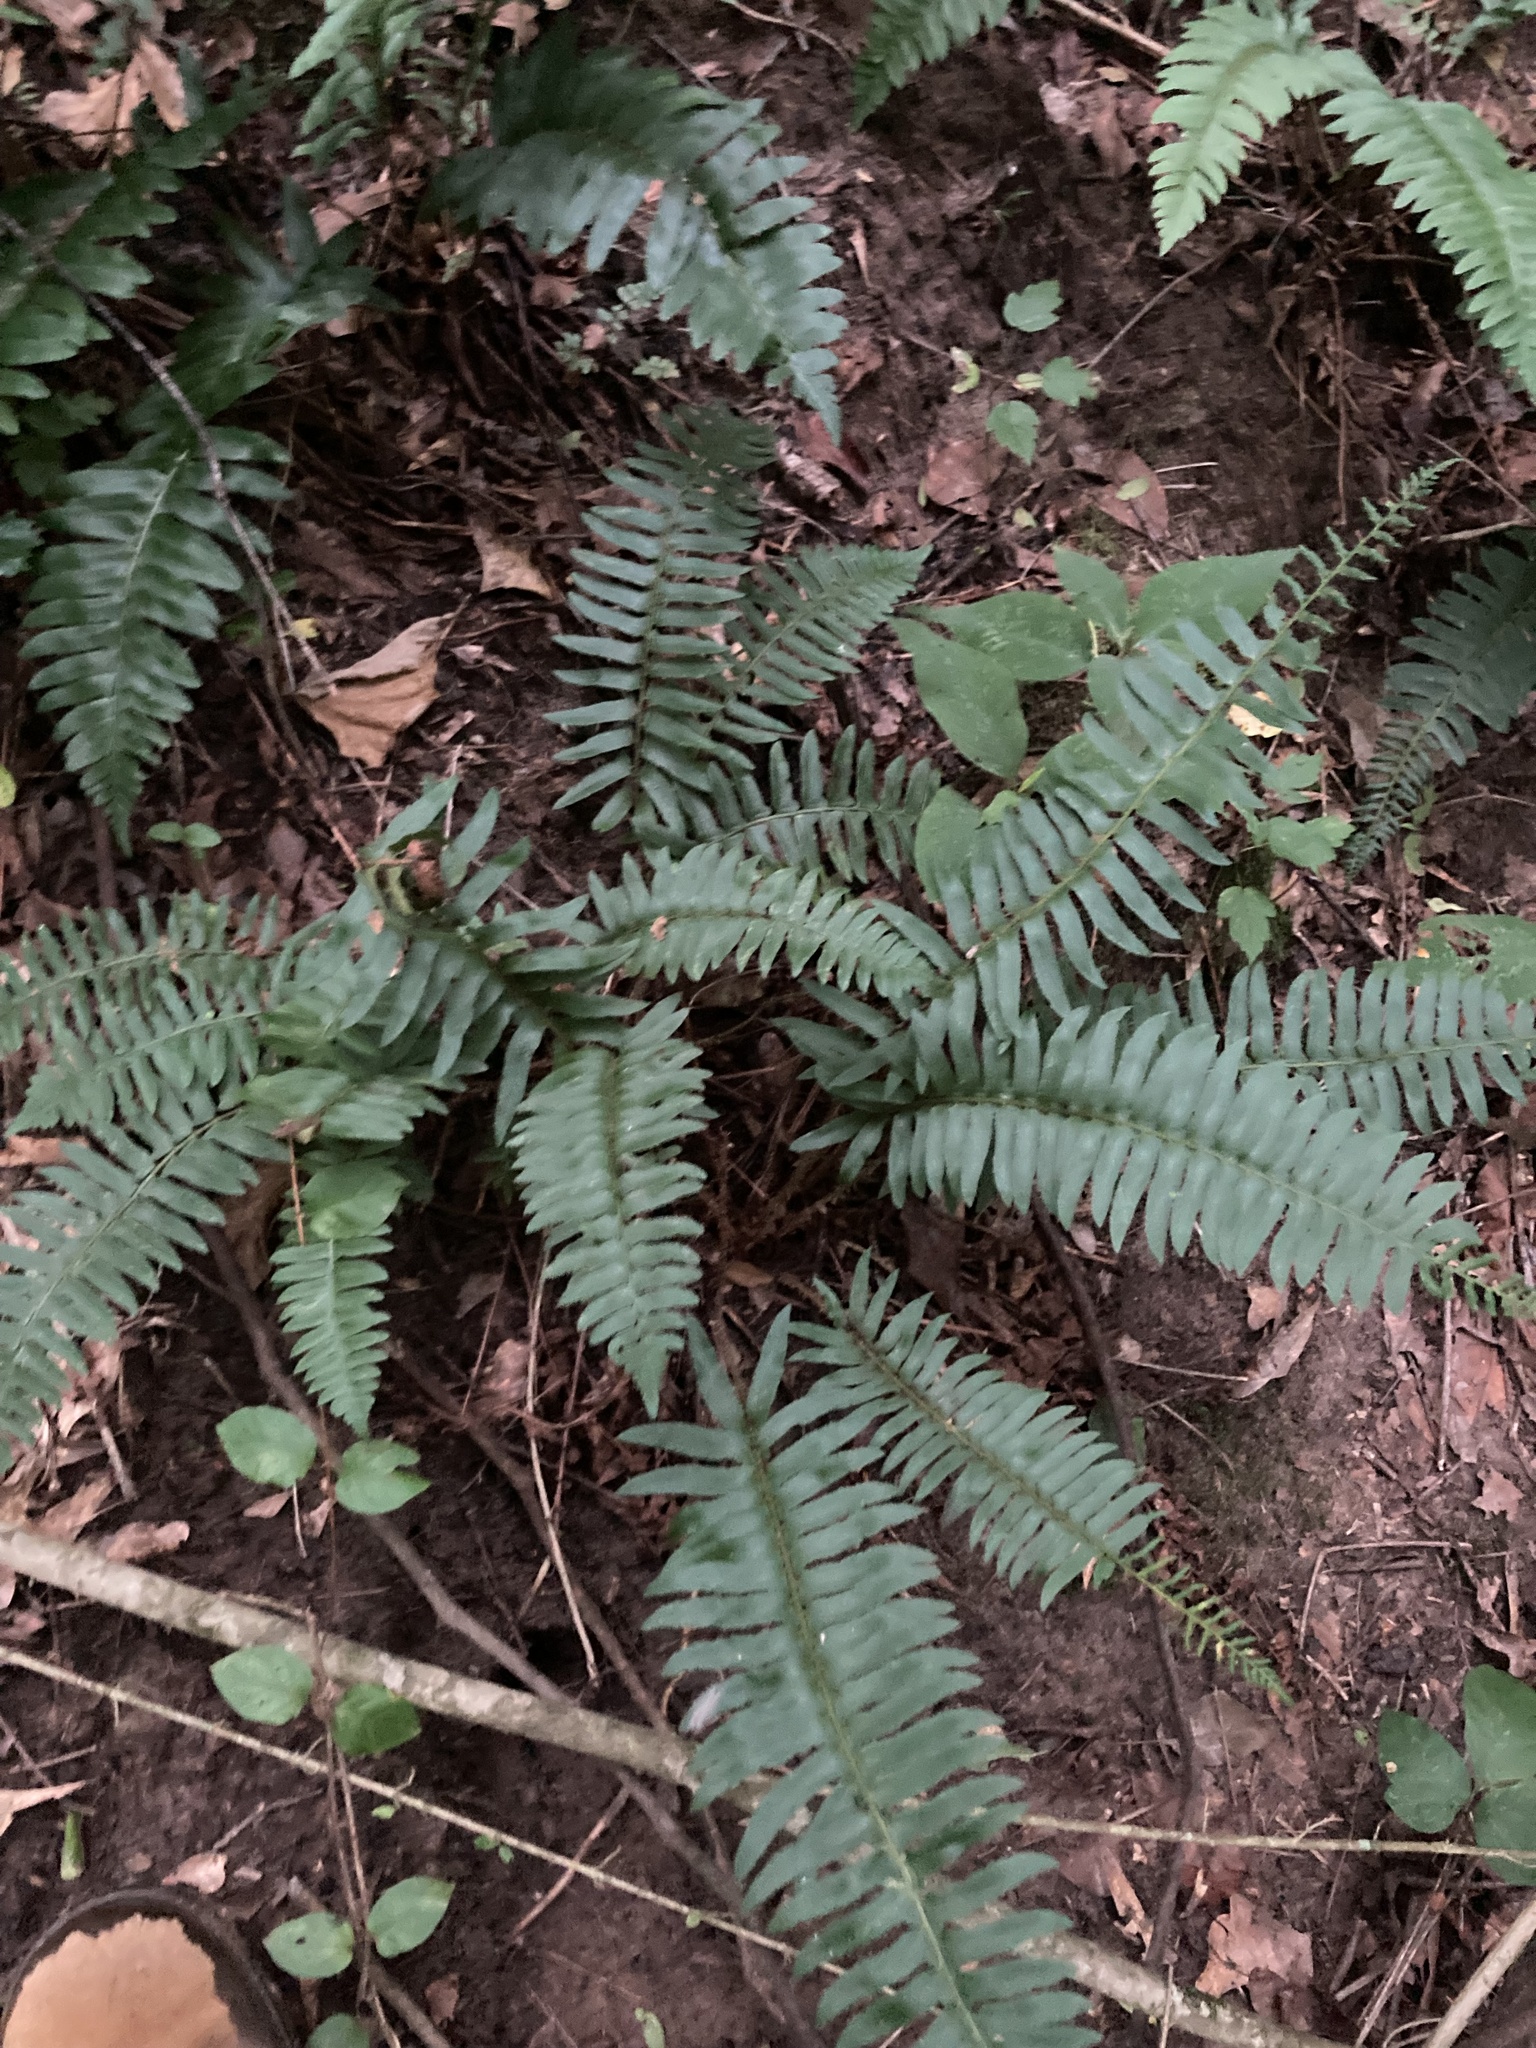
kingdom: Plantae
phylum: Tracheophyta
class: Polypodiopsida
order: Polypodiales
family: Dryopteridaceae
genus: Polystichum
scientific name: Polystichum acrostichoides
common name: Christmas fern
